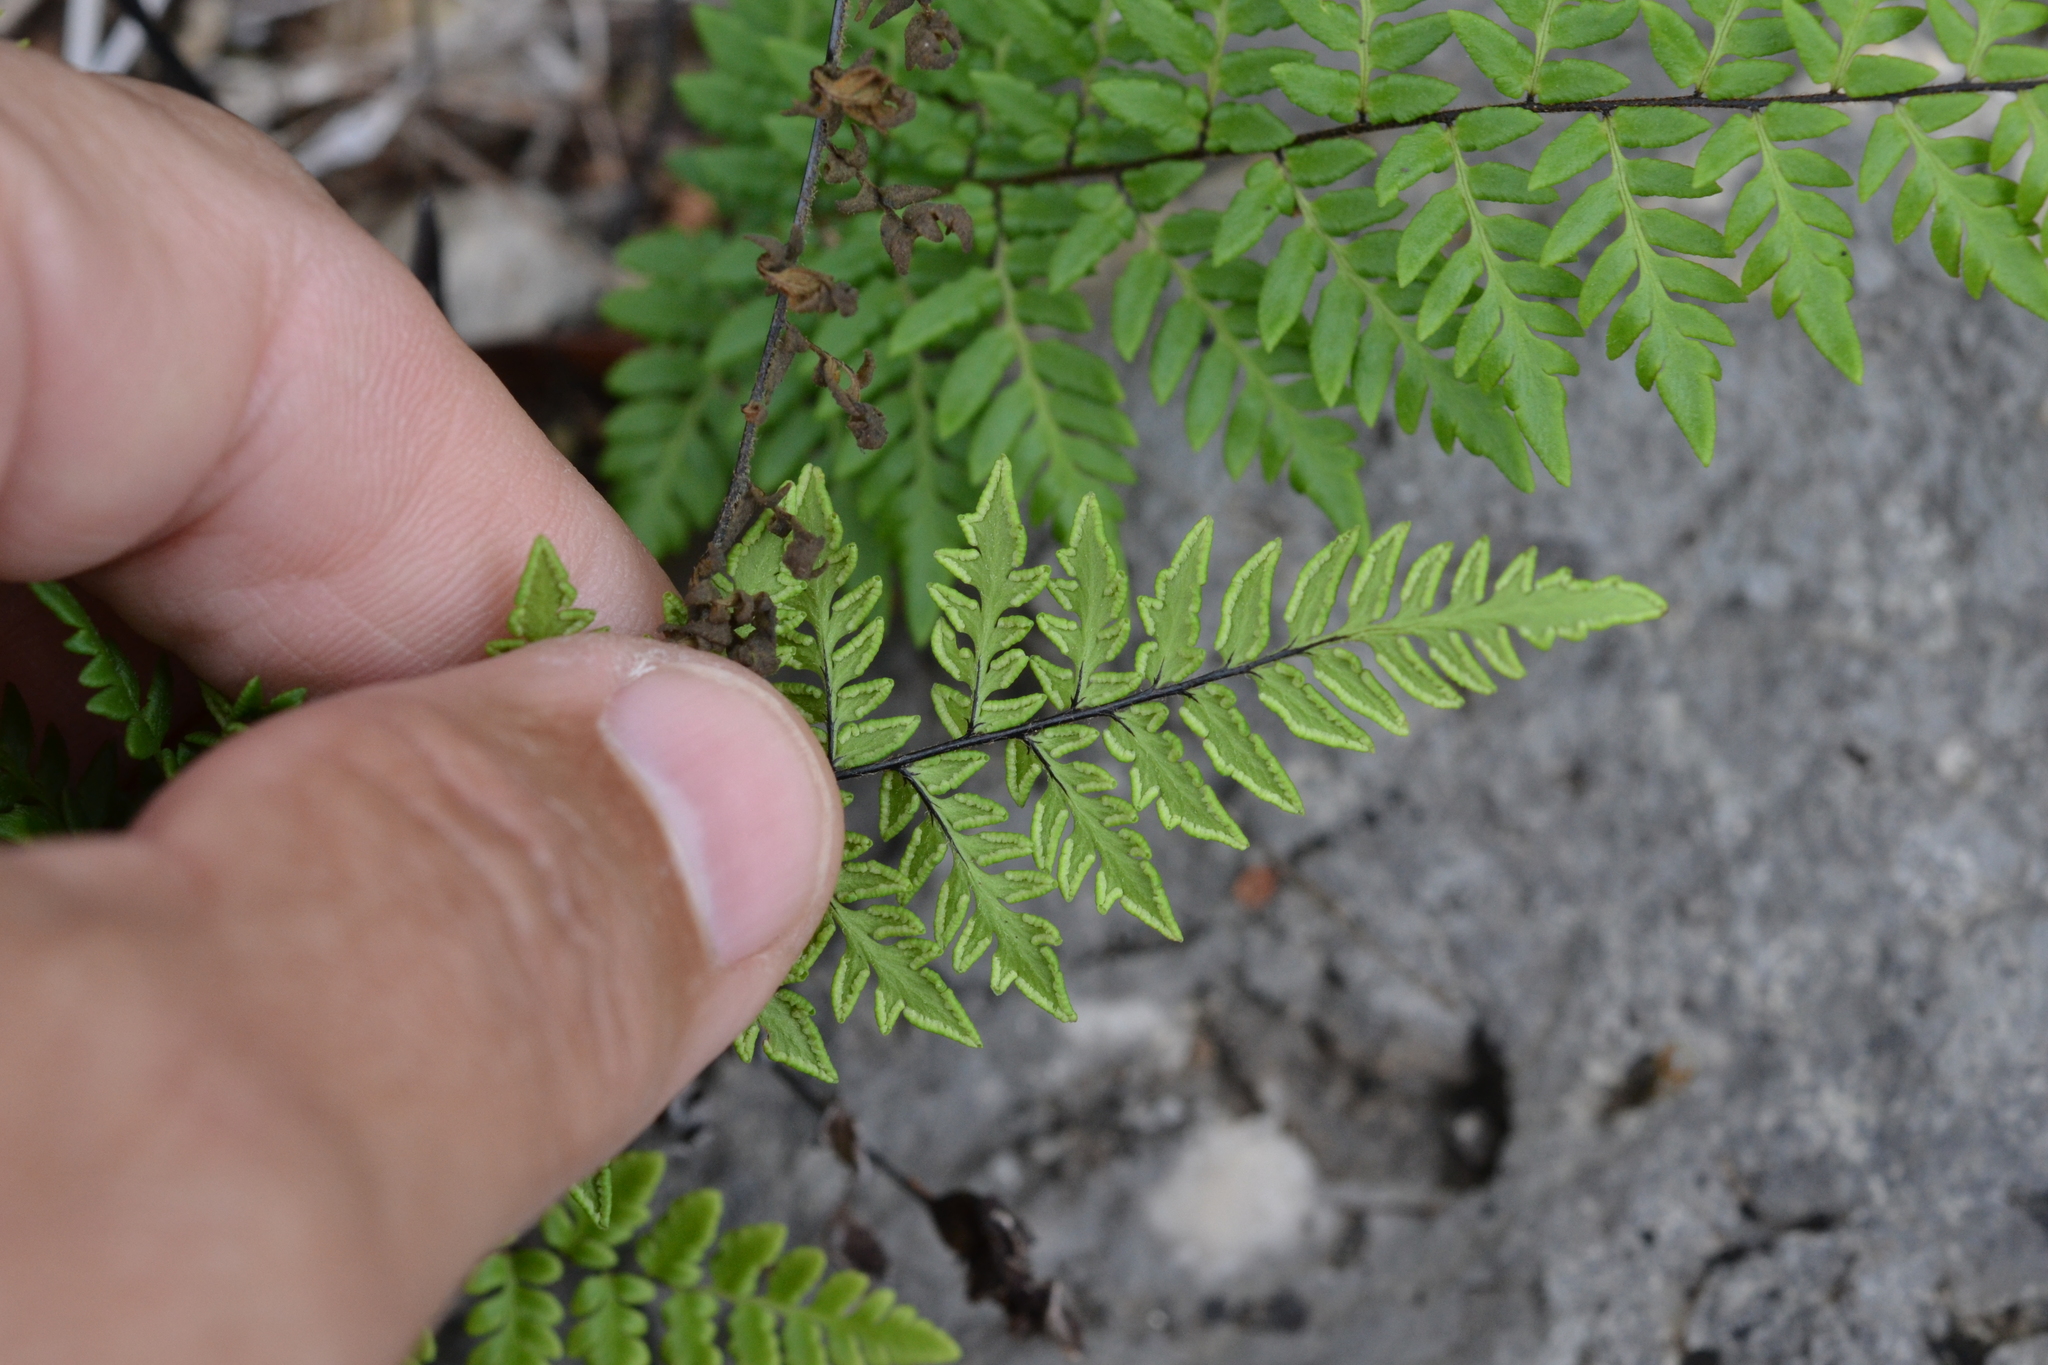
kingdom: Plantae
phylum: Tracheophyta
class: Polypodiopsida
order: Polypodiales
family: Pteridaceae
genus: Myriopteris
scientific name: Myriopteris alabamensis
